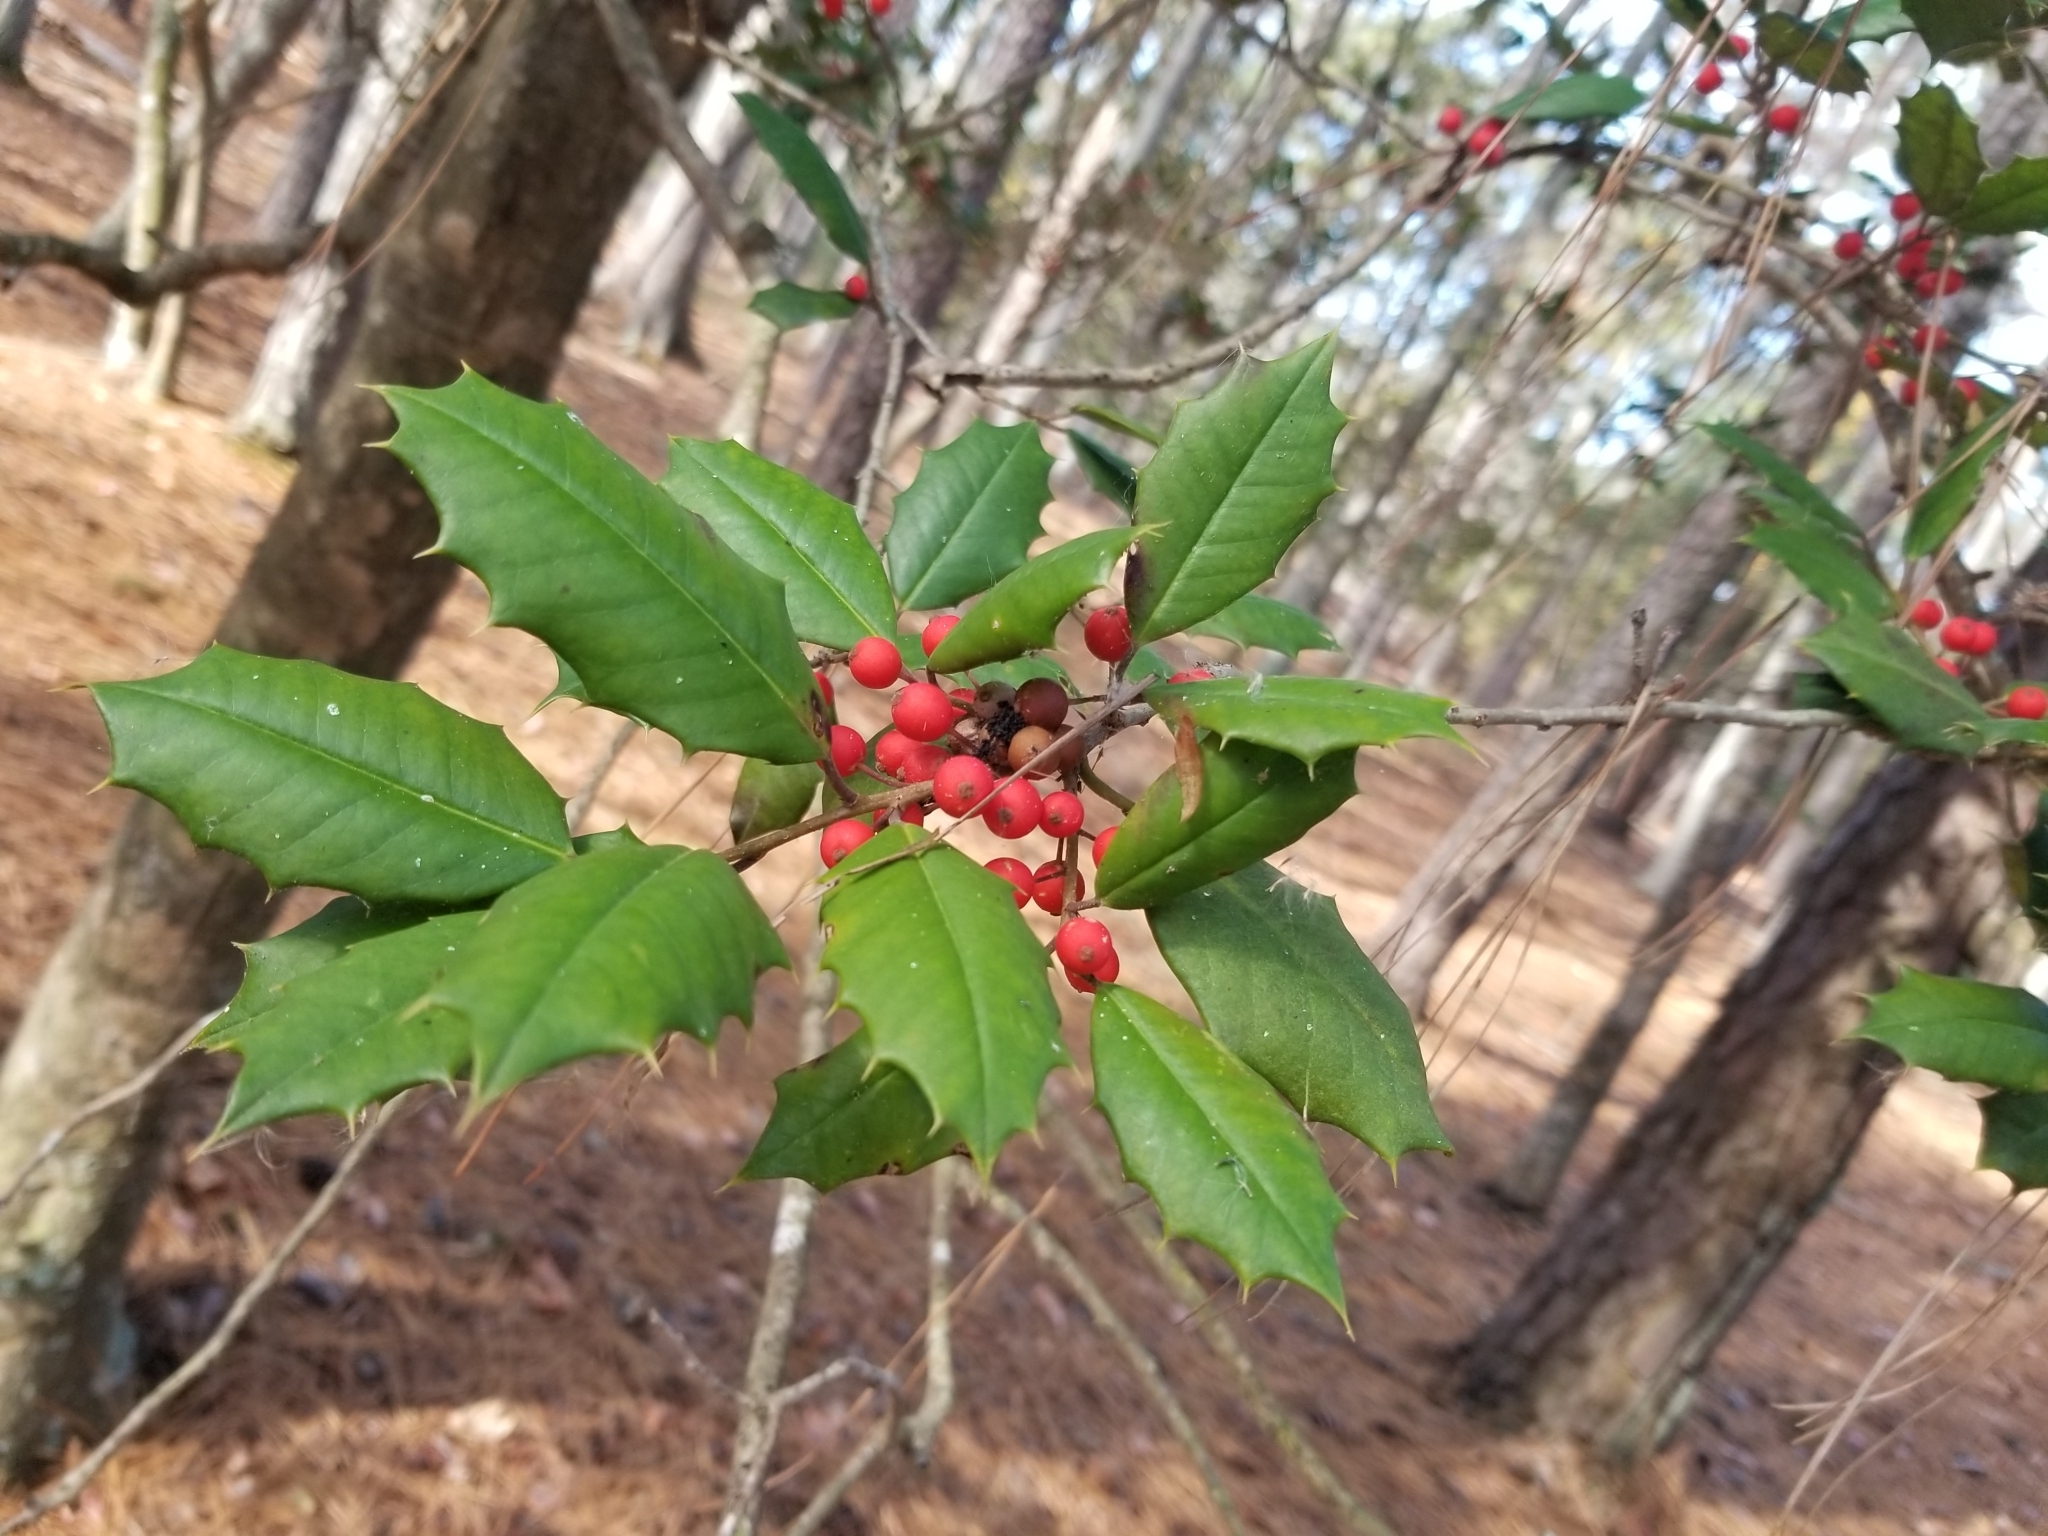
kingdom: Plantae
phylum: Tracheophyta
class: Magnoliopsida
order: Aquifoliales
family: Aquifoliaceae
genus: Ilex
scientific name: Ilex opaca
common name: American holly
